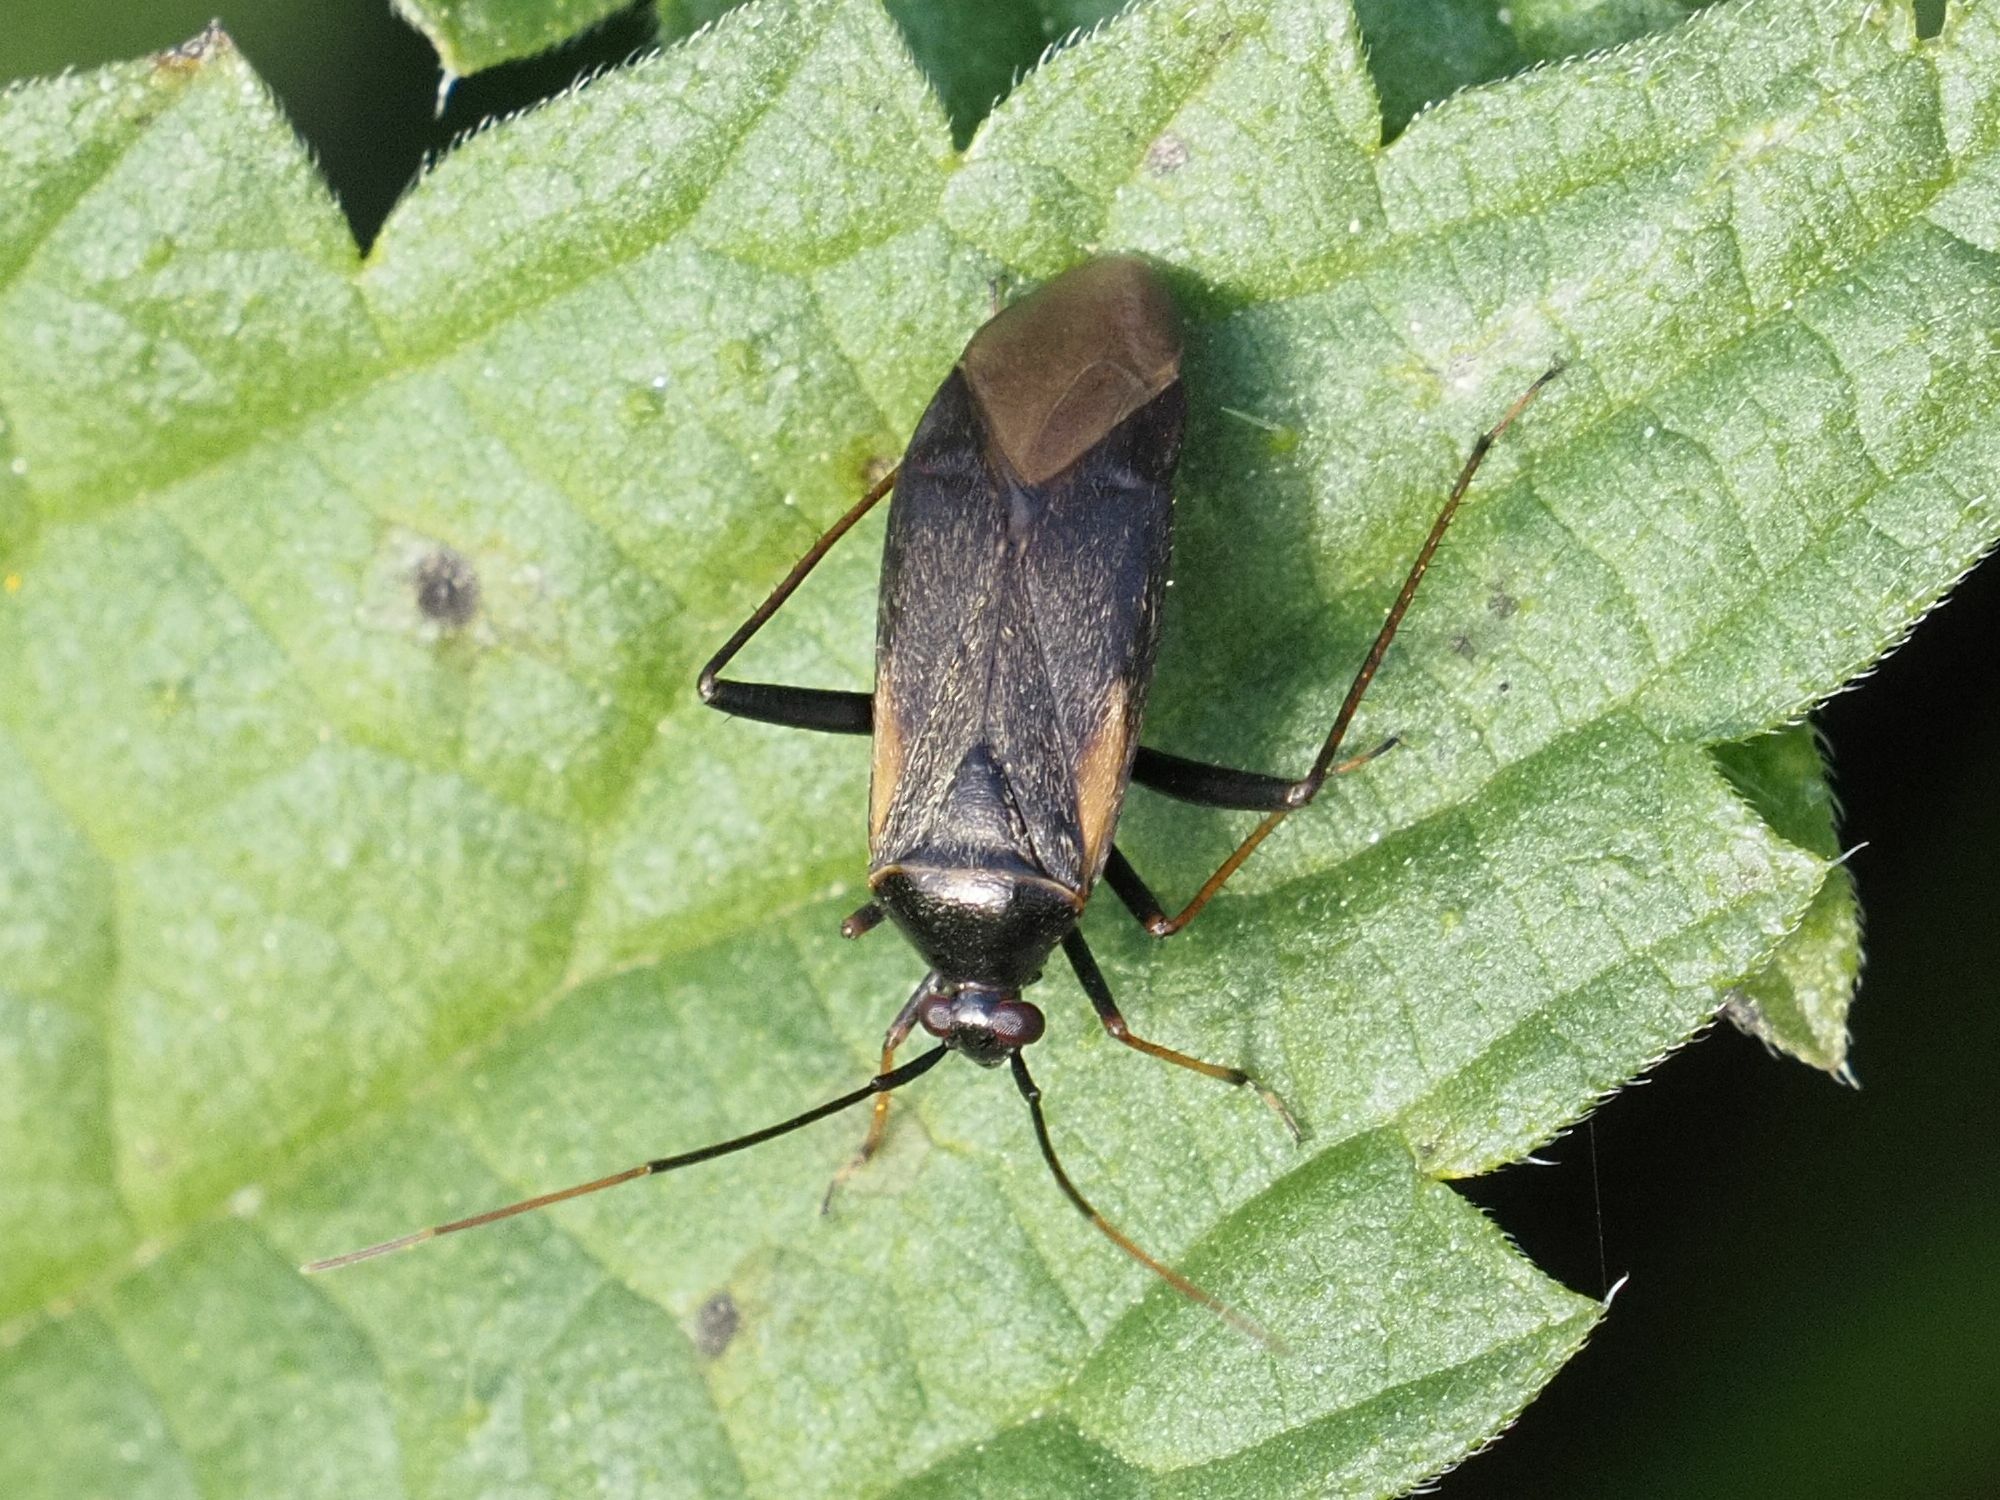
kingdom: Animalia
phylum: Arthropoda
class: Insecta
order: Hemiptera
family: Miridae
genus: Adelphocoris
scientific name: Adelphocoris seticornis
